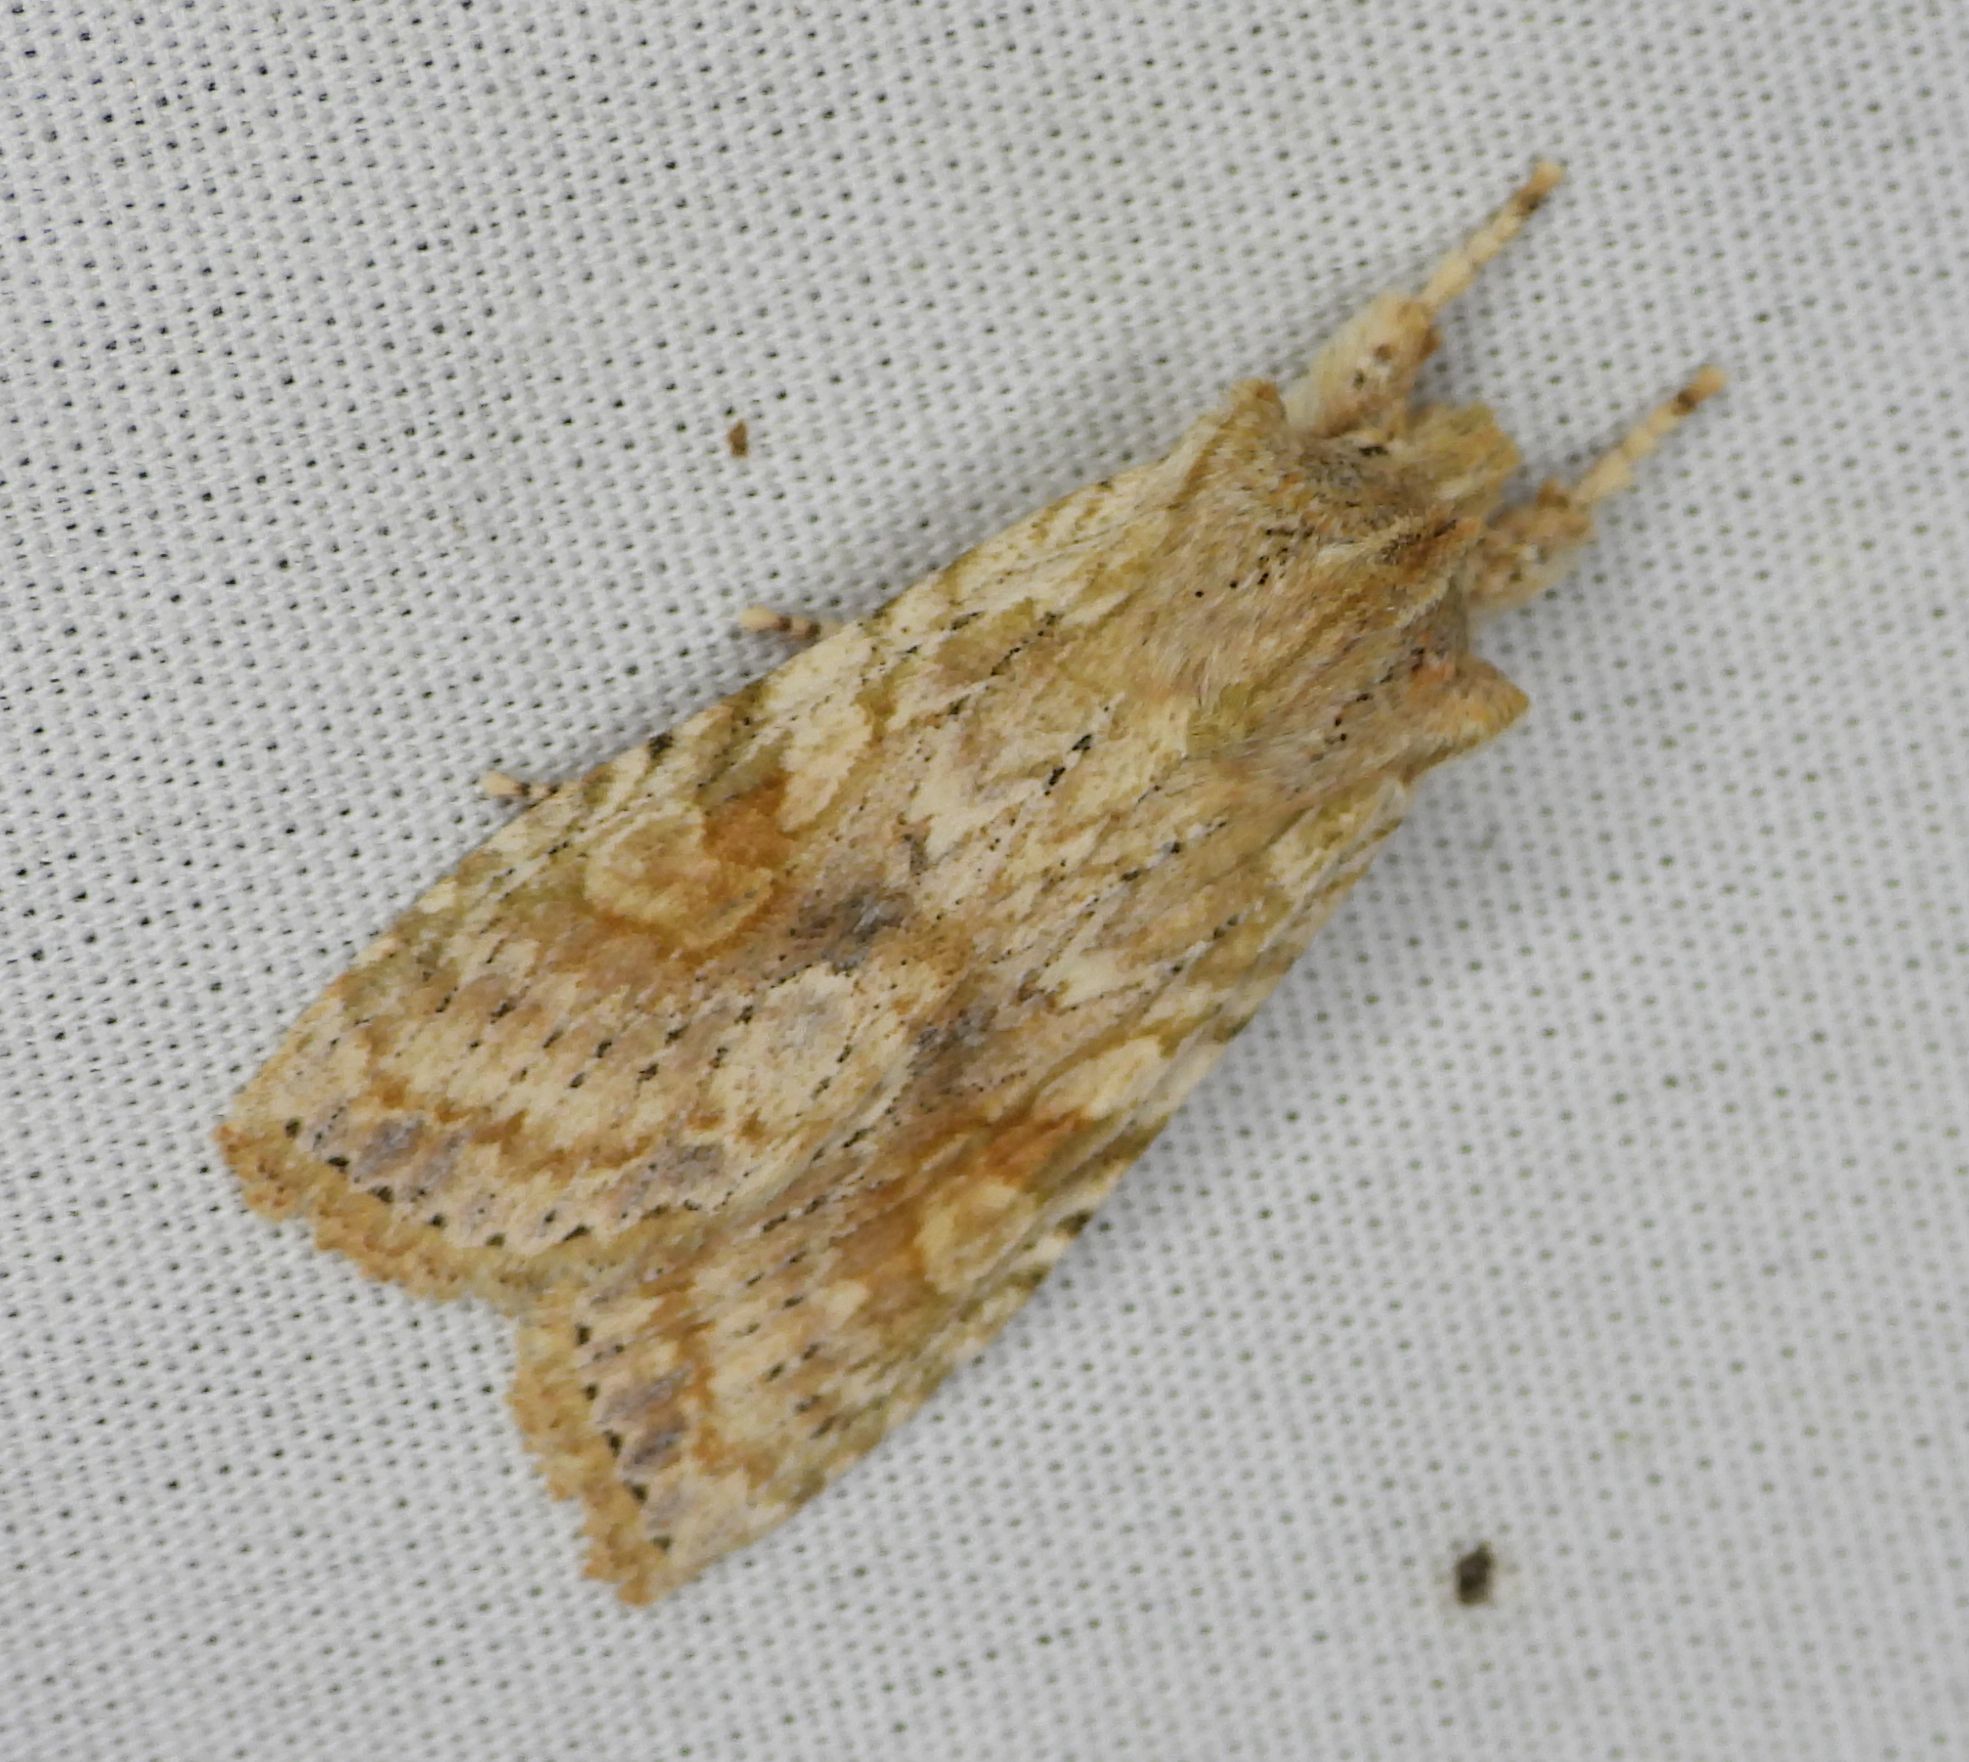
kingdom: Animalia
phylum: Arthropoda
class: Insecta
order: Lepidoptera
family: Noctuidae
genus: Lithophane
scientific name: Lithophane bethunei
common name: Bethune's pinion moth
